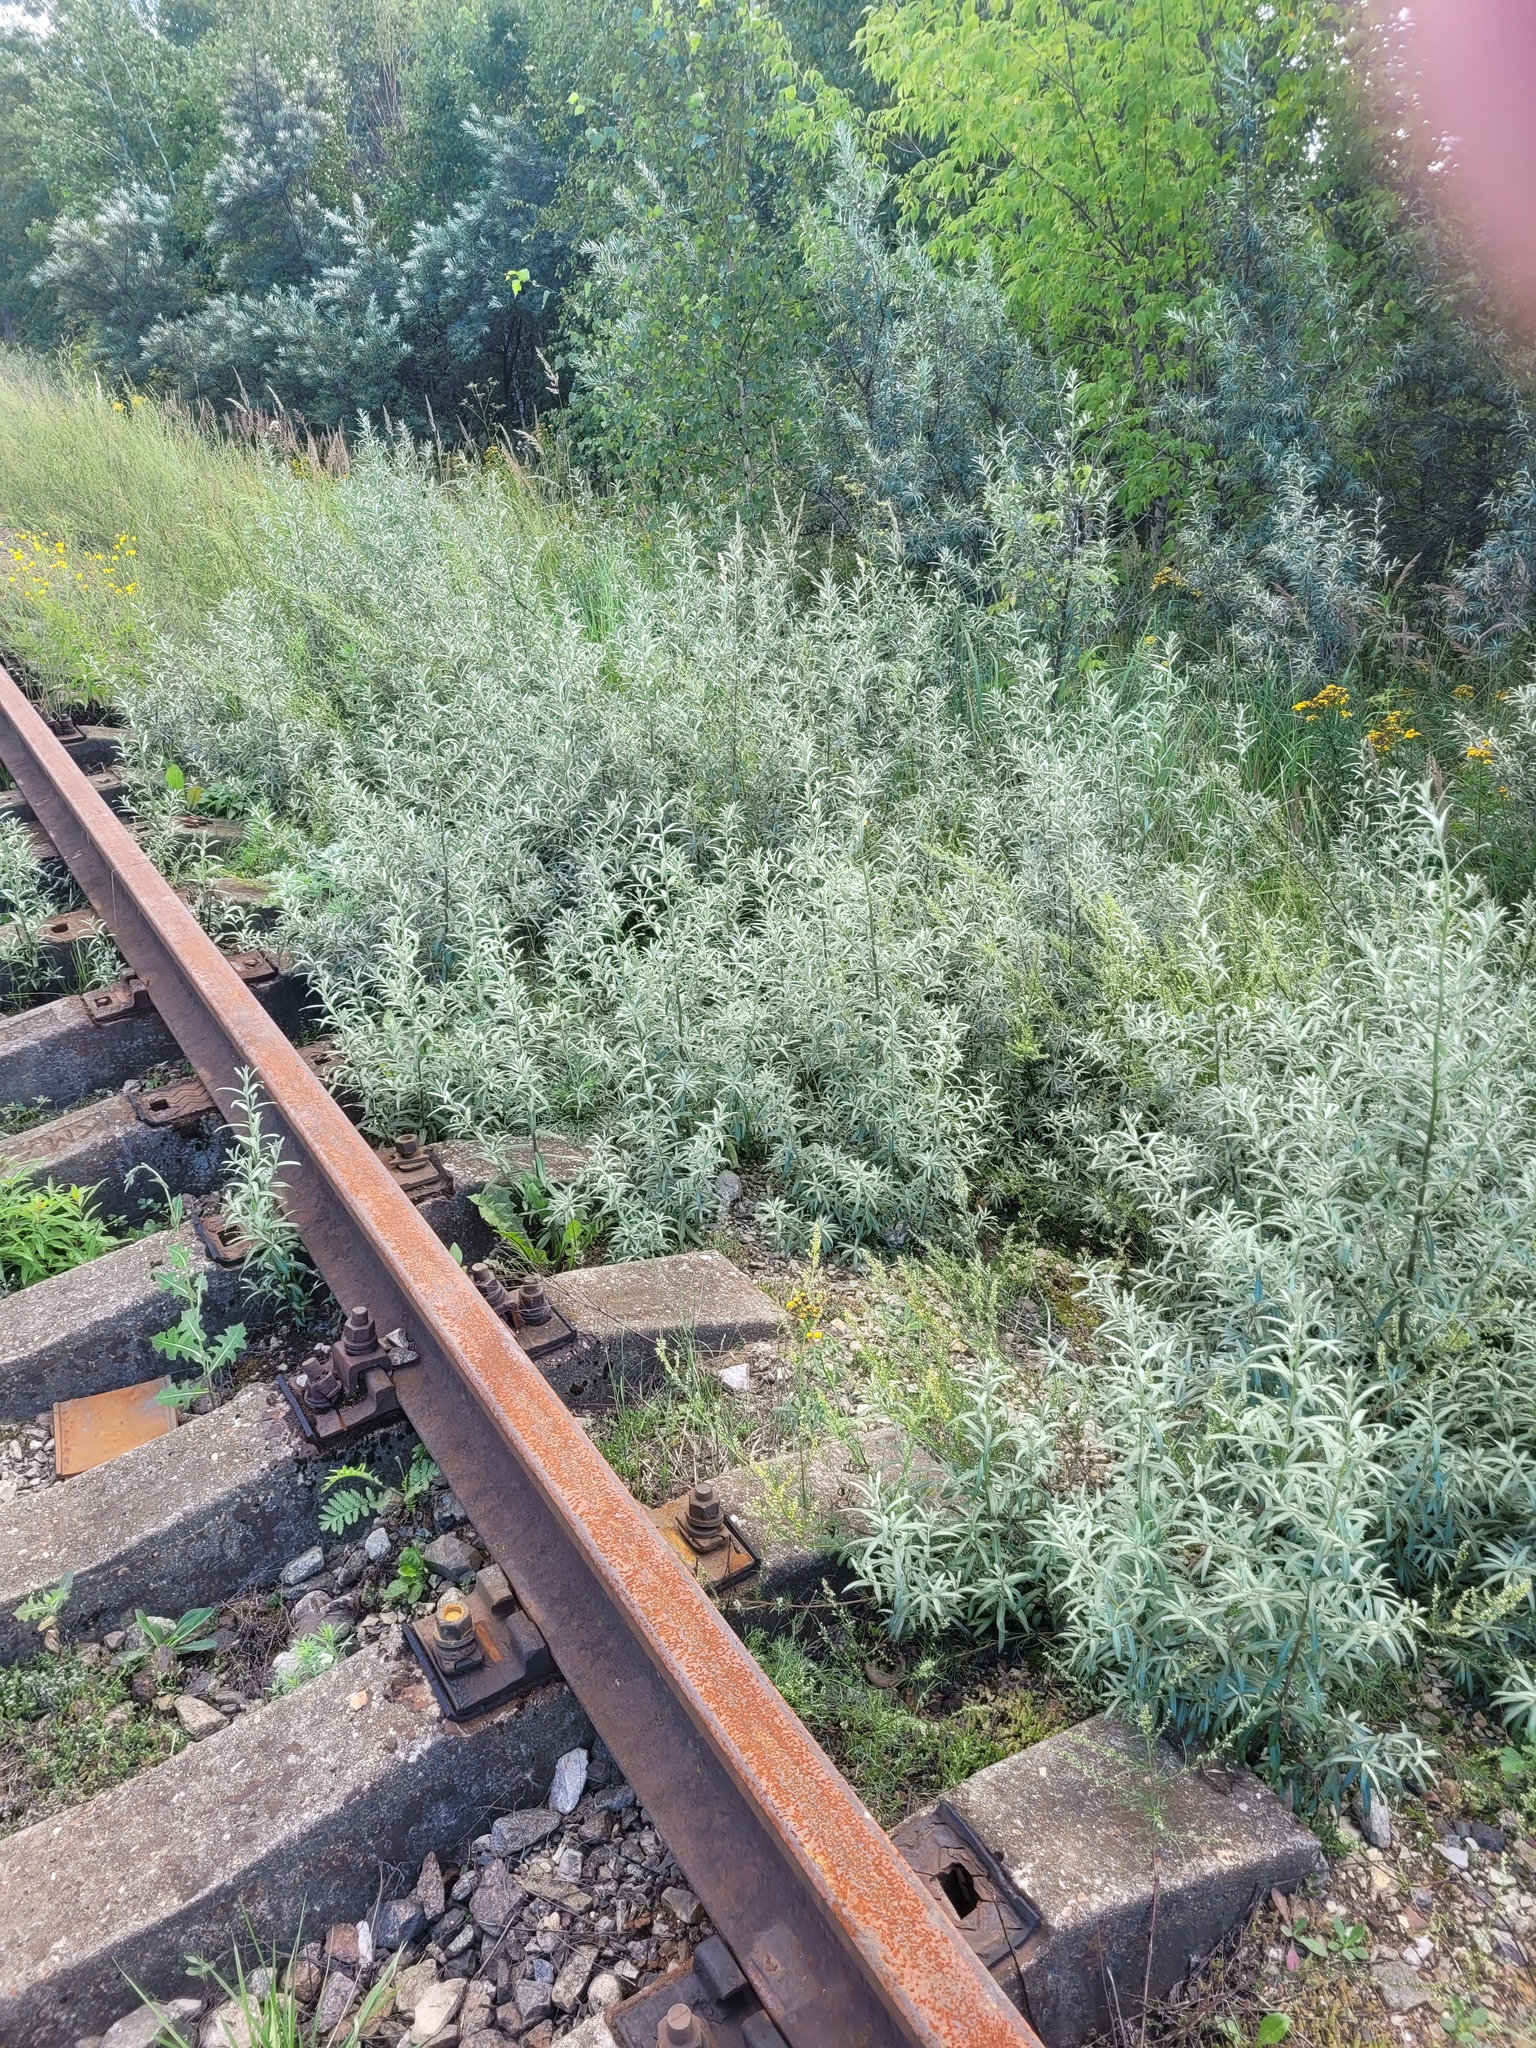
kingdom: Plantae
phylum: Tracheophyta
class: Magnoliopsida
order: Rosales
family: Elaeagnaceae
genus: Hippophae
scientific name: Hippophae rhamnoides
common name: Sea-buckthorn
